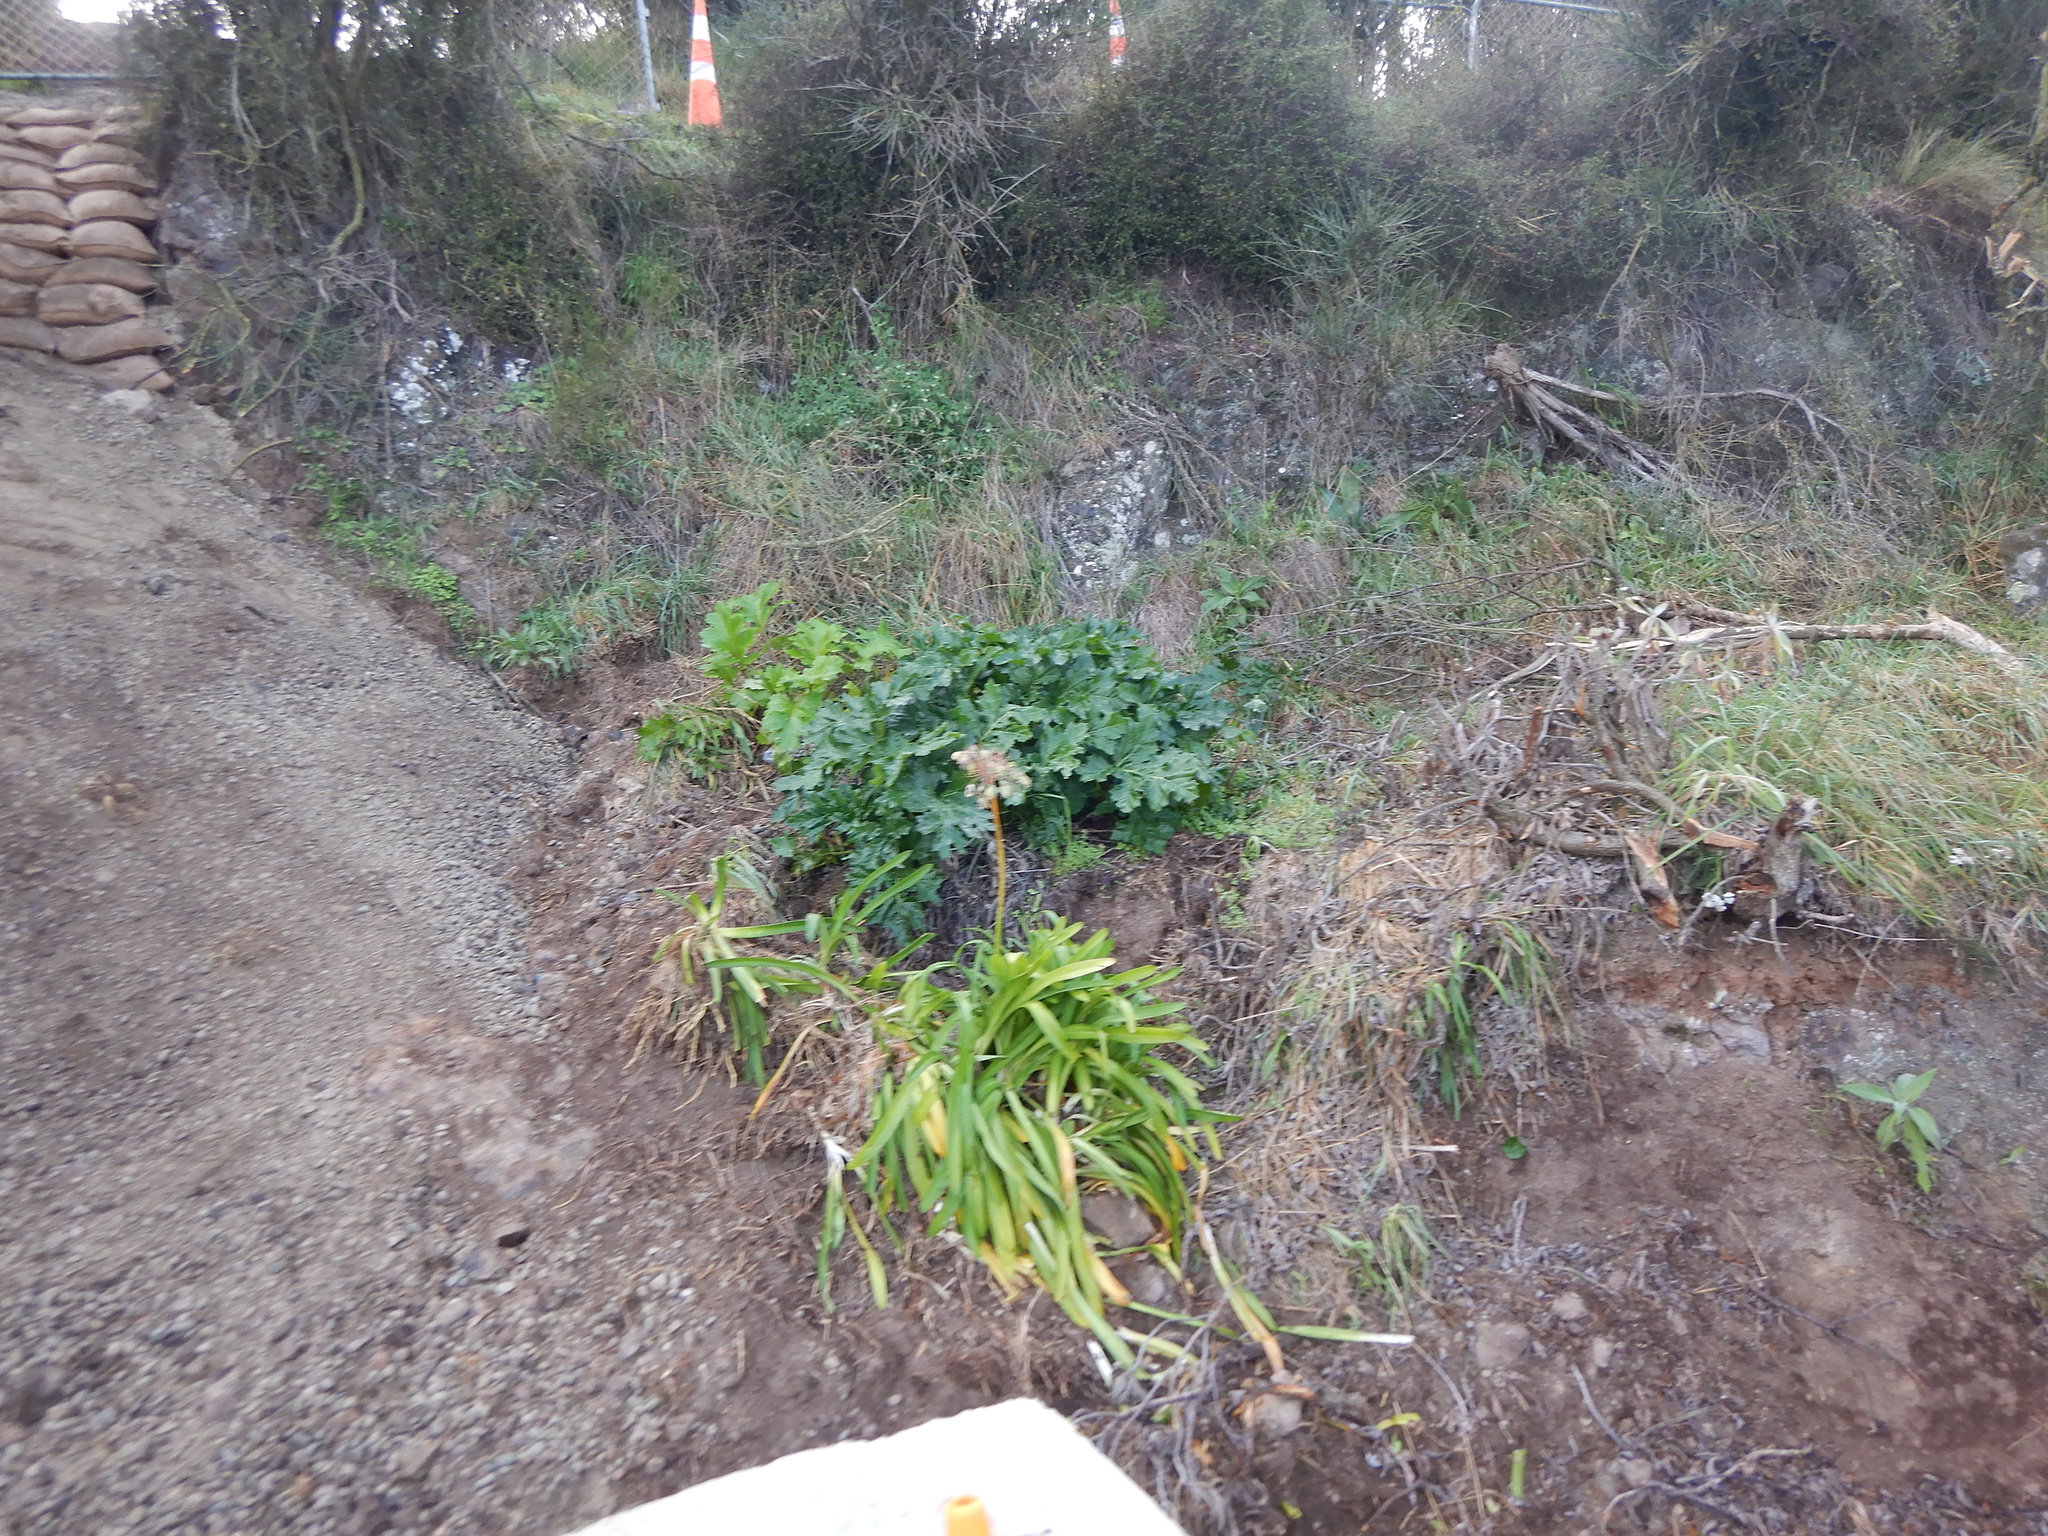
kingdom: Plantae
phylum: Tracheophyta
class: Magnoliopsida
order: Lamiales
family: Acanthaceae
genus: Acanthus
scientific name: Acanthus mollis
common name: Bear's-breech
